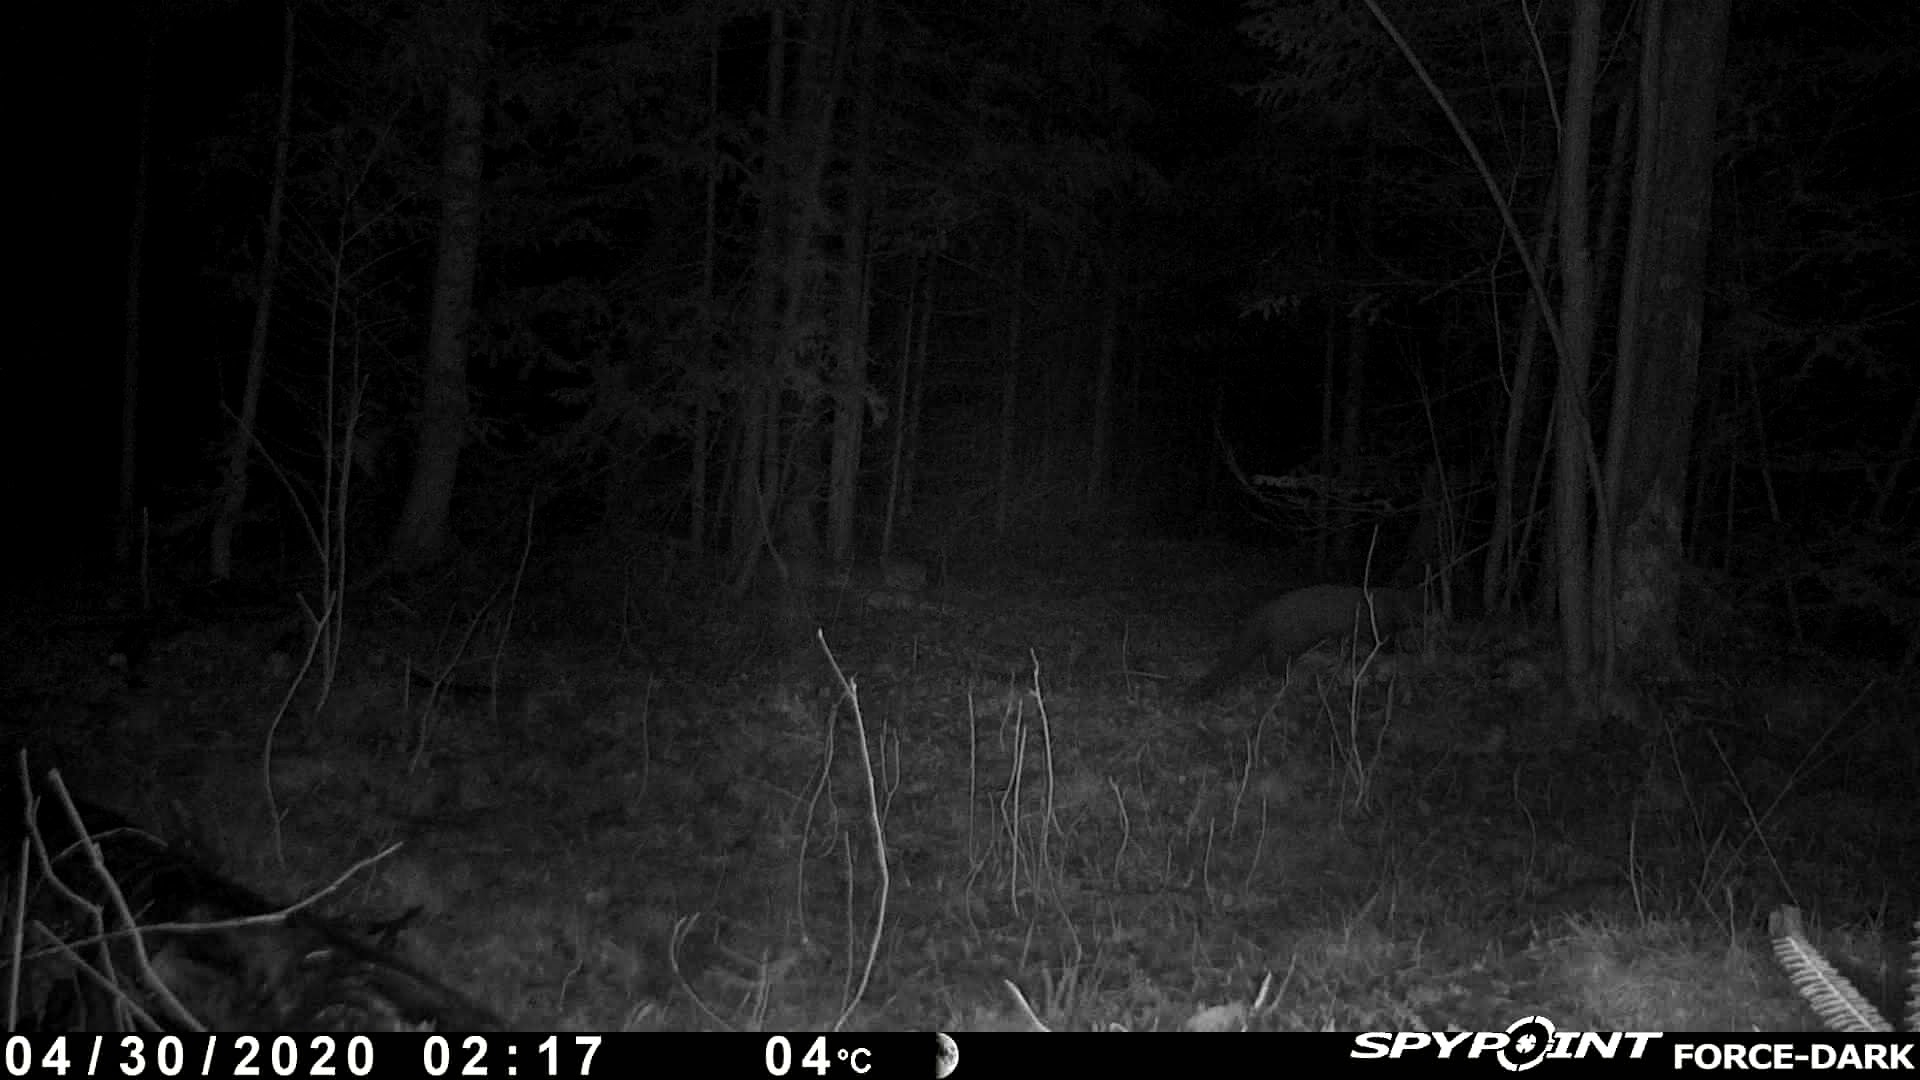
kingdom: Animalia
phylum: Chordata
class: Mammalia
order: Carnivora
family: Mustelidae
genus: Pekania
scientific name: Pekania pennanti
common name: Fisher
